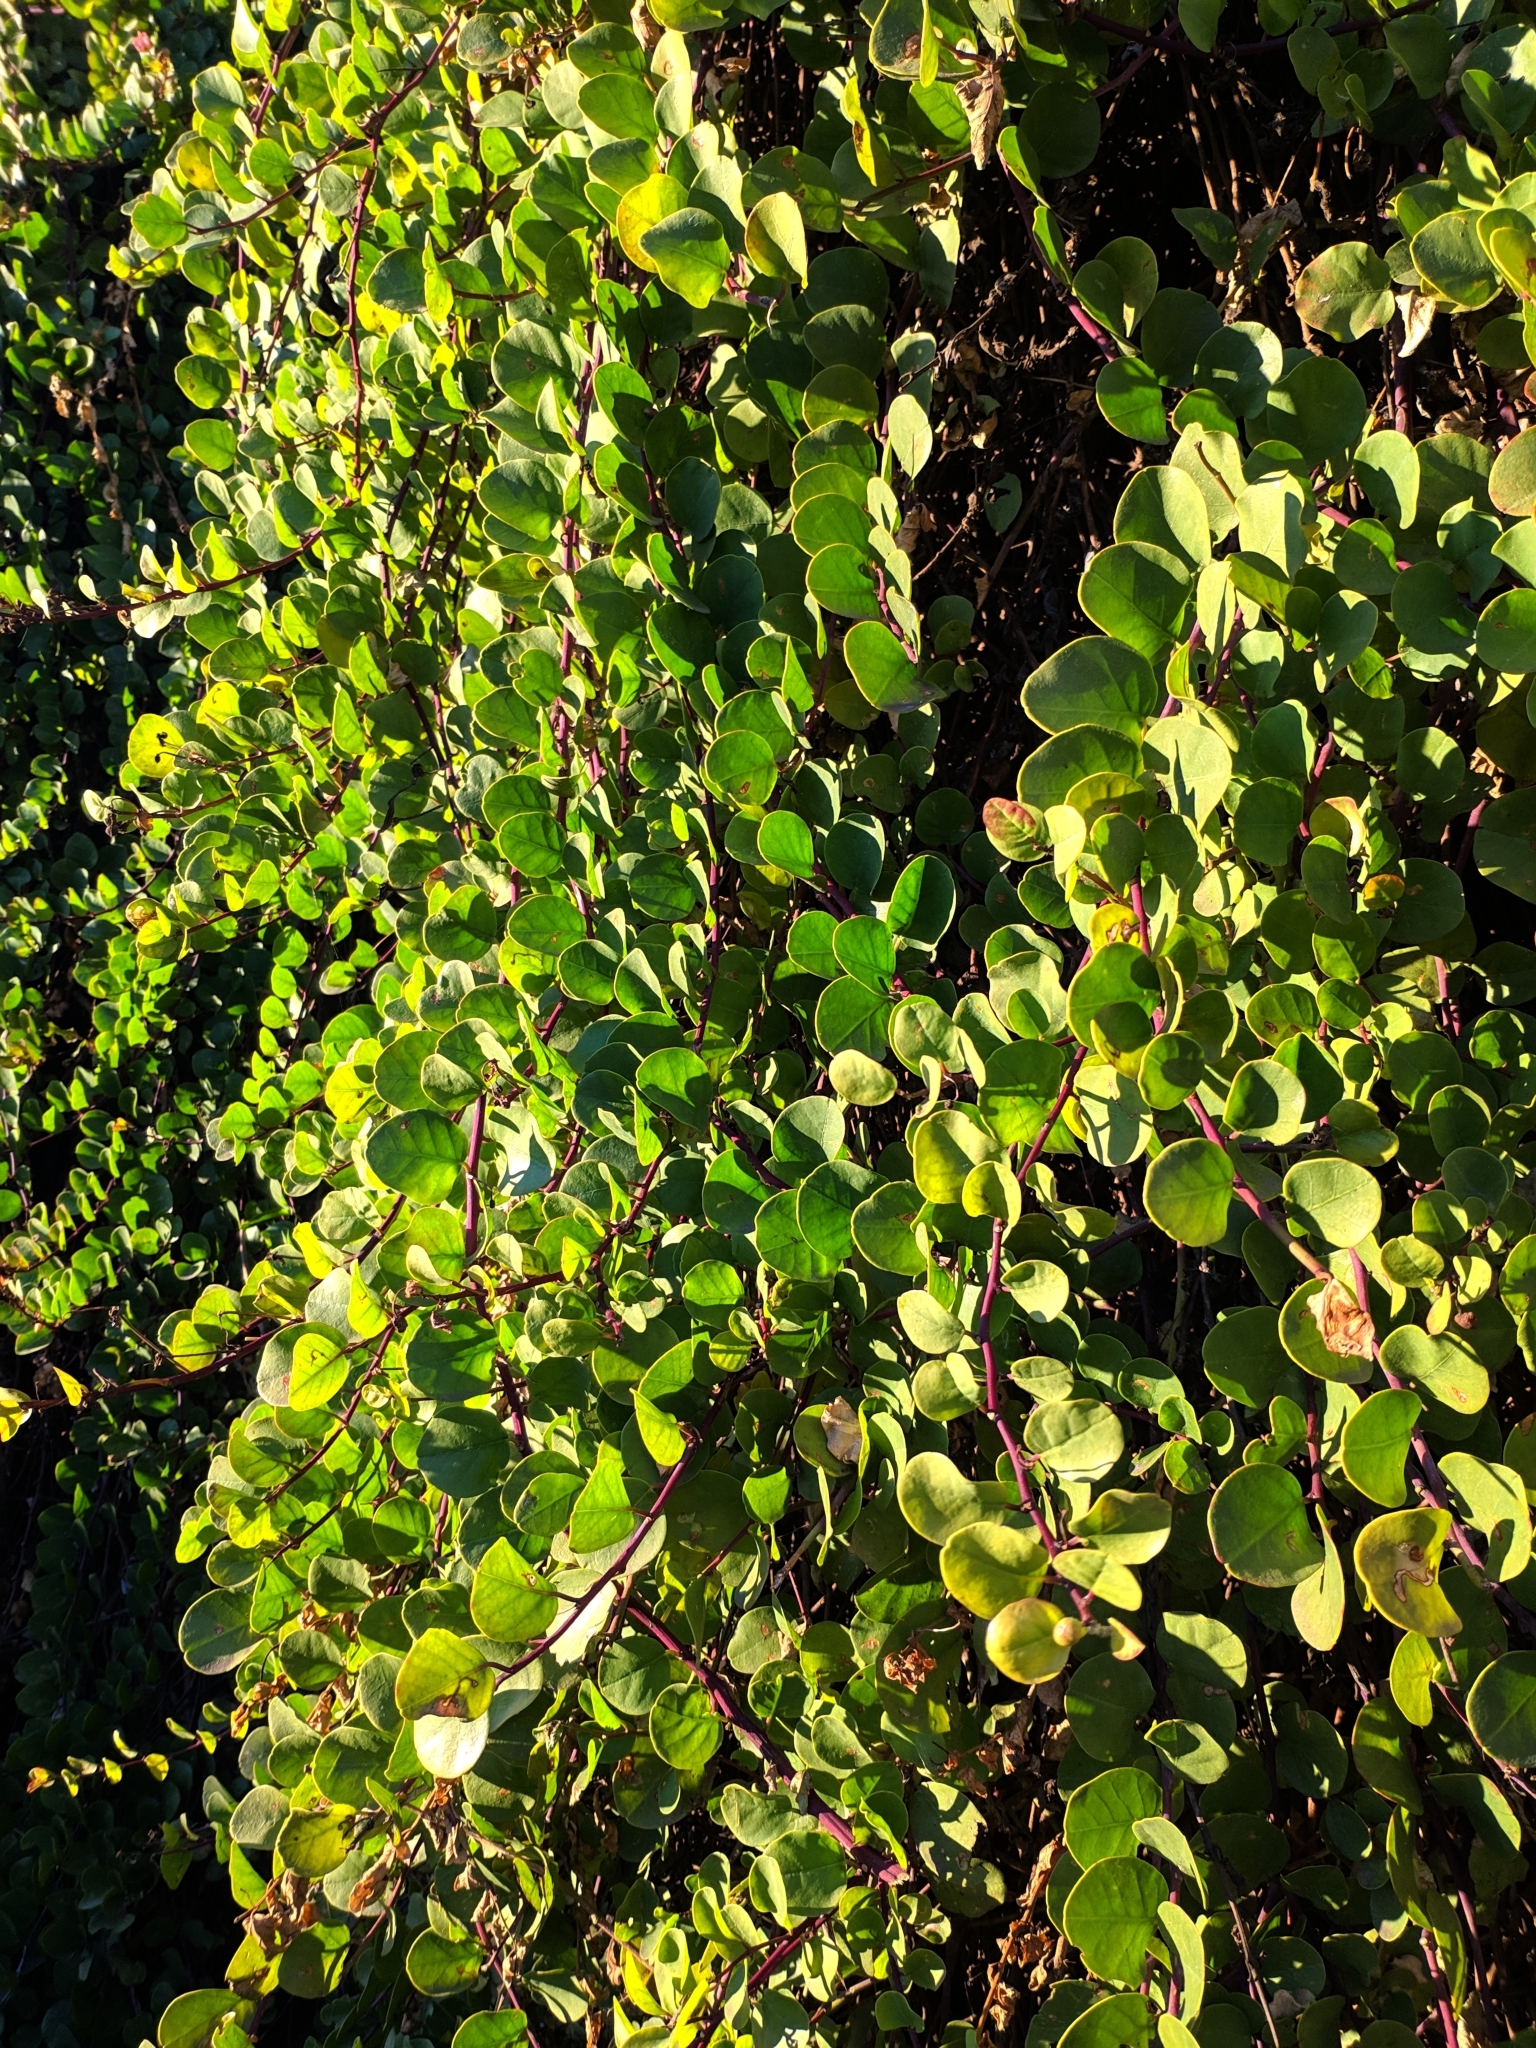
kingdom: Plantae
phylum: Tracheophyta
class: Magnoliopsida
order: Brassicales
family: Capparaceae
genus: Capparis
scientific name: Capparis spinosa
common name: Caper
